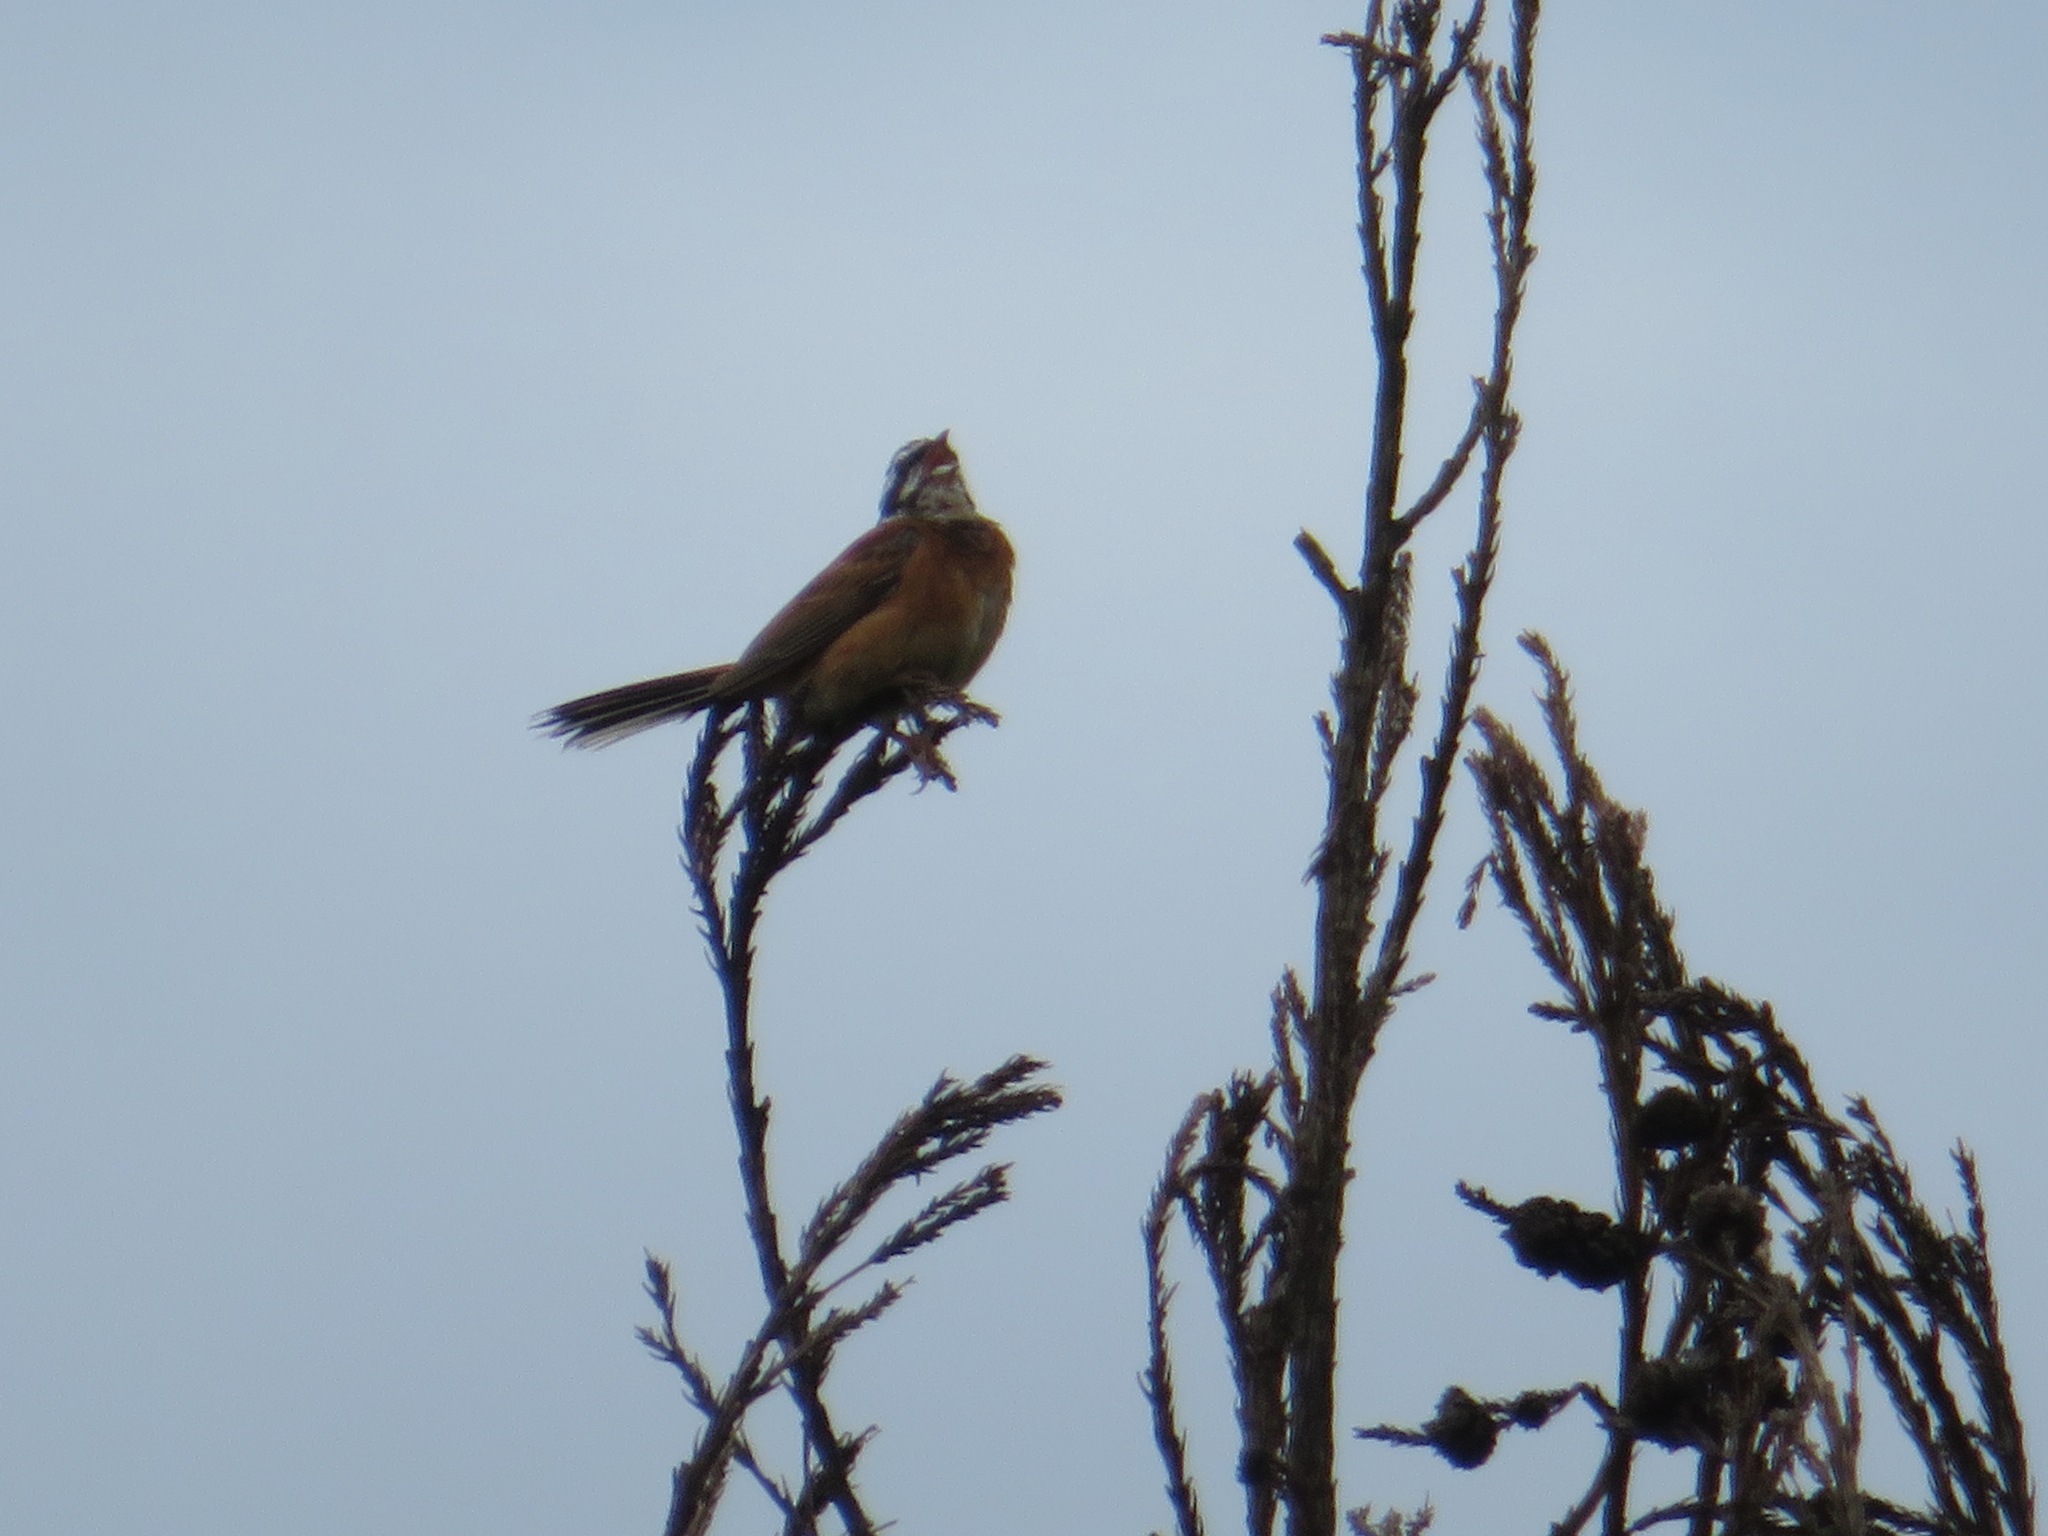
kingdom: Animalia
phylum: Chordata
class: Aves
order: Passeriformes
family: Emberizidae
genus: Emberiza
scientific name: Emberiza cioides
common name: Meadow bunting
